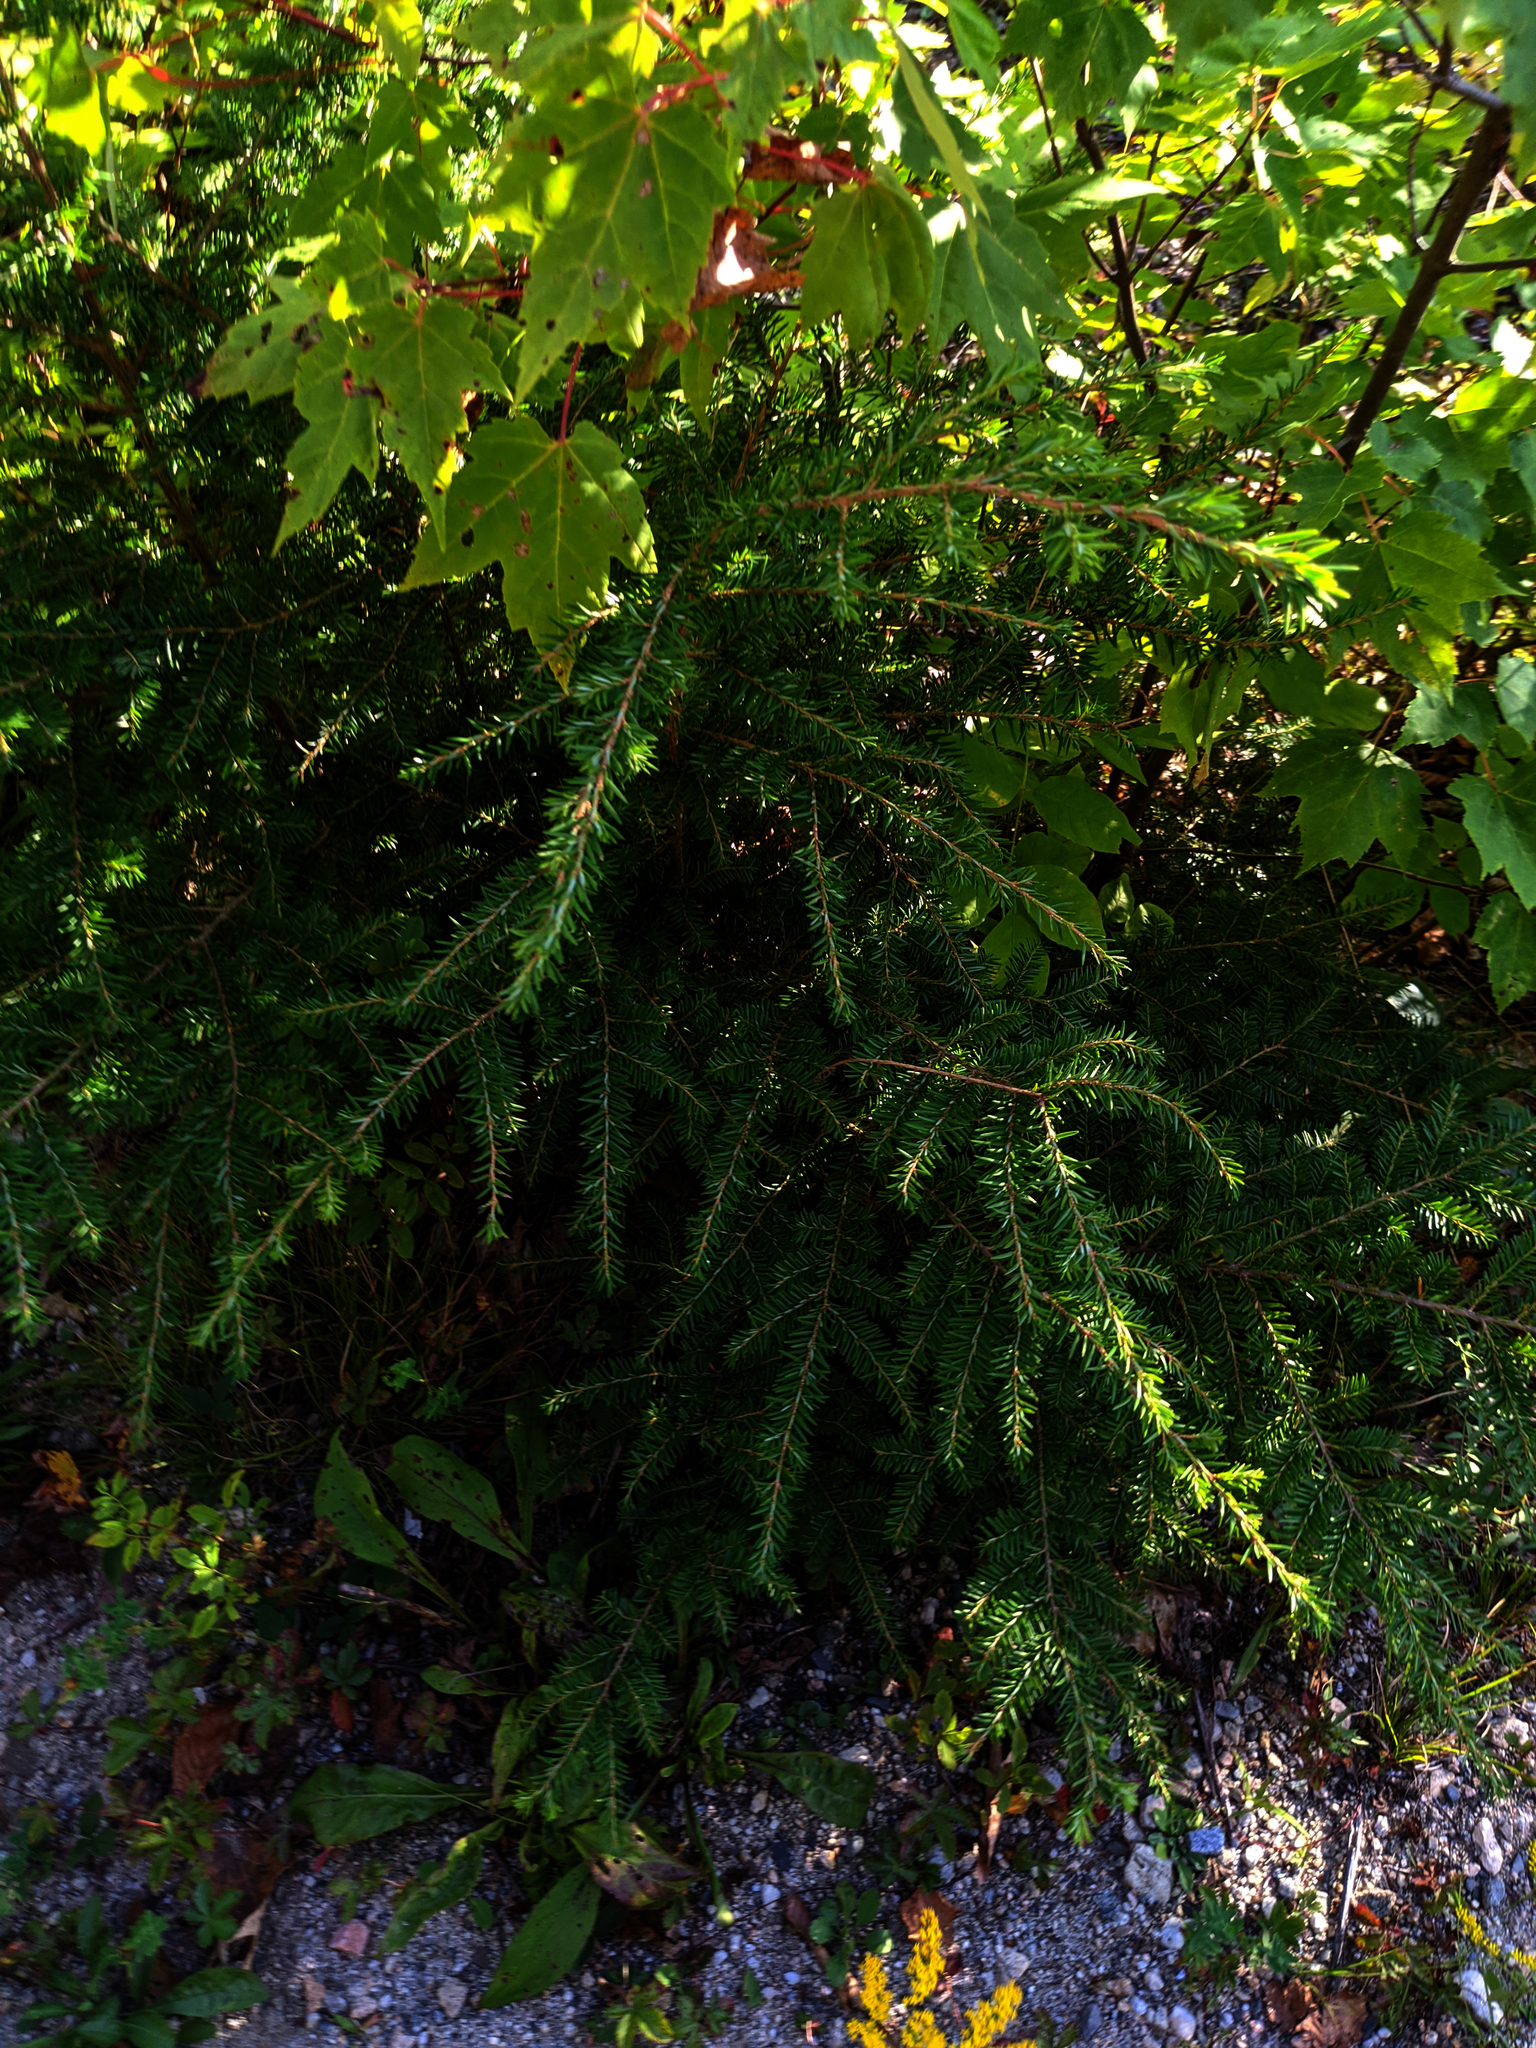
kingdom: Plantae
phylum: Tracheophyta
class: Magnoliopsida
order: Sapindales
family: Sapindaceae
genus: Acer
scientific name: Acer rubrum
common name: Red maple
